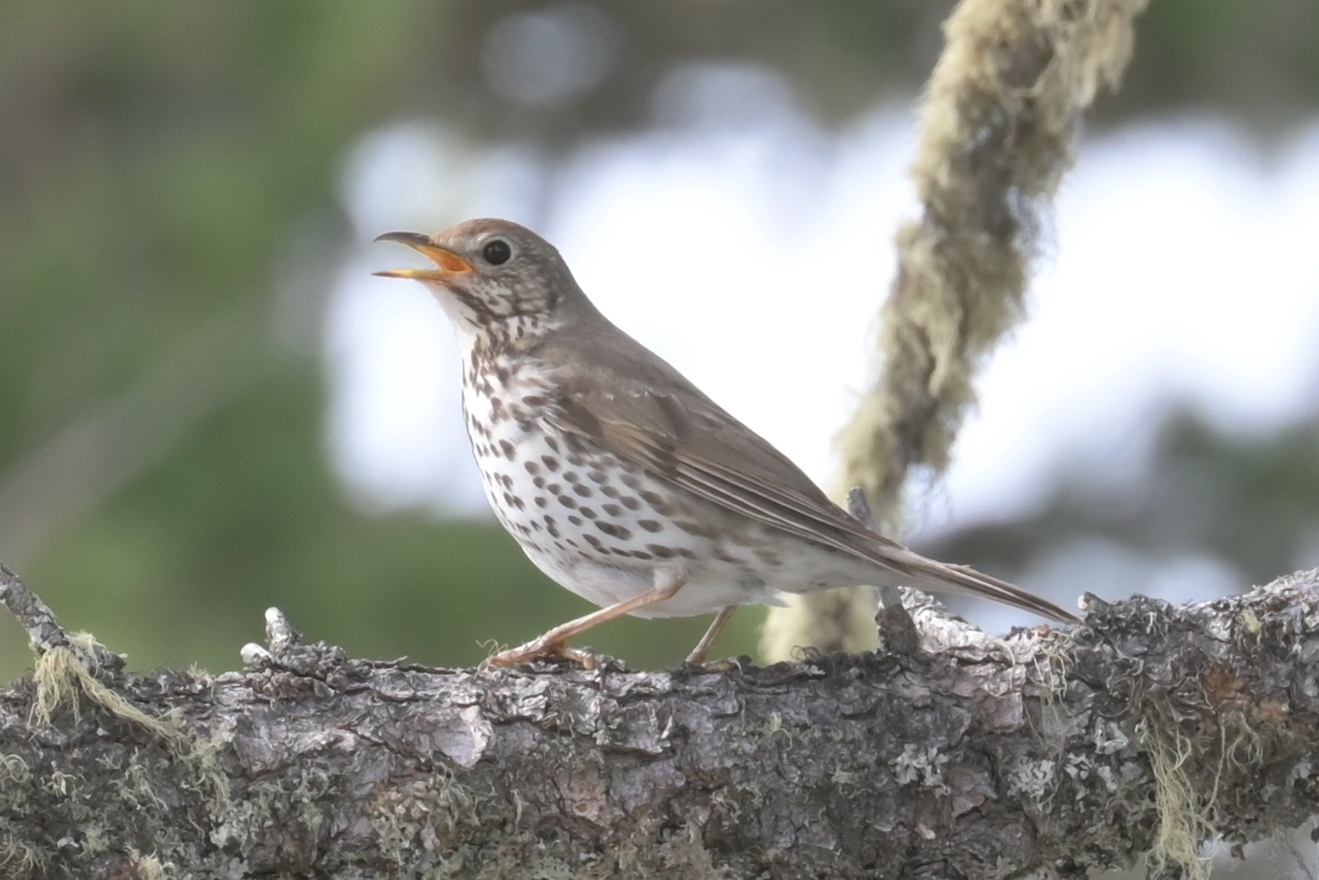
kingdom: Animalia
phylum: Chordata
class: Aves
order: Passeriformes
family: Turdidae
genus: Turdus
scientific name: Turdus philomelos
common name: Song thrush
